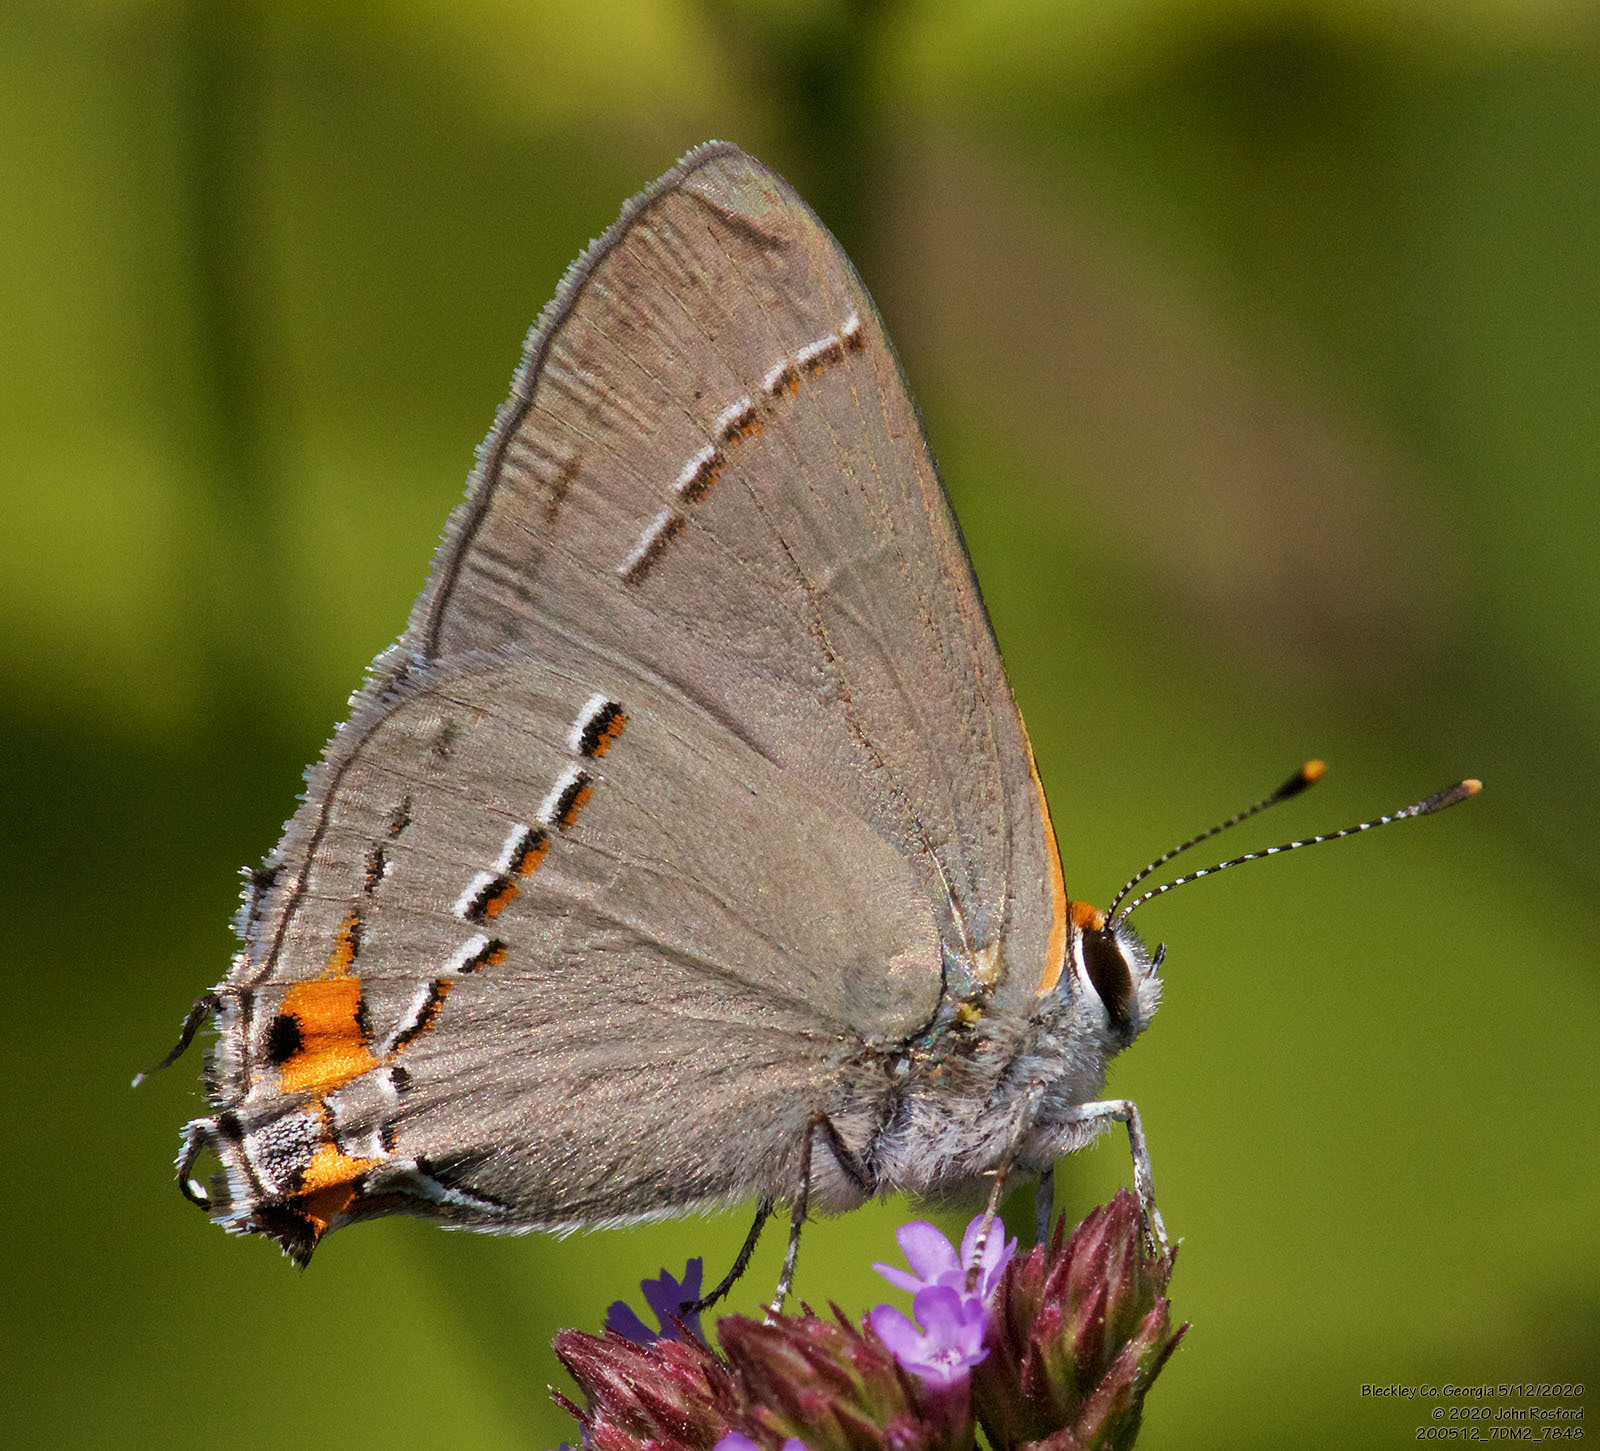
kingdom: Animalia
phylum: Arthropoda
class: Insecta
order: Lepidoptera
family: Lycaenidae
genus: Strymon
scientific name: Strymon melinus
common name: Gray hairstreak
